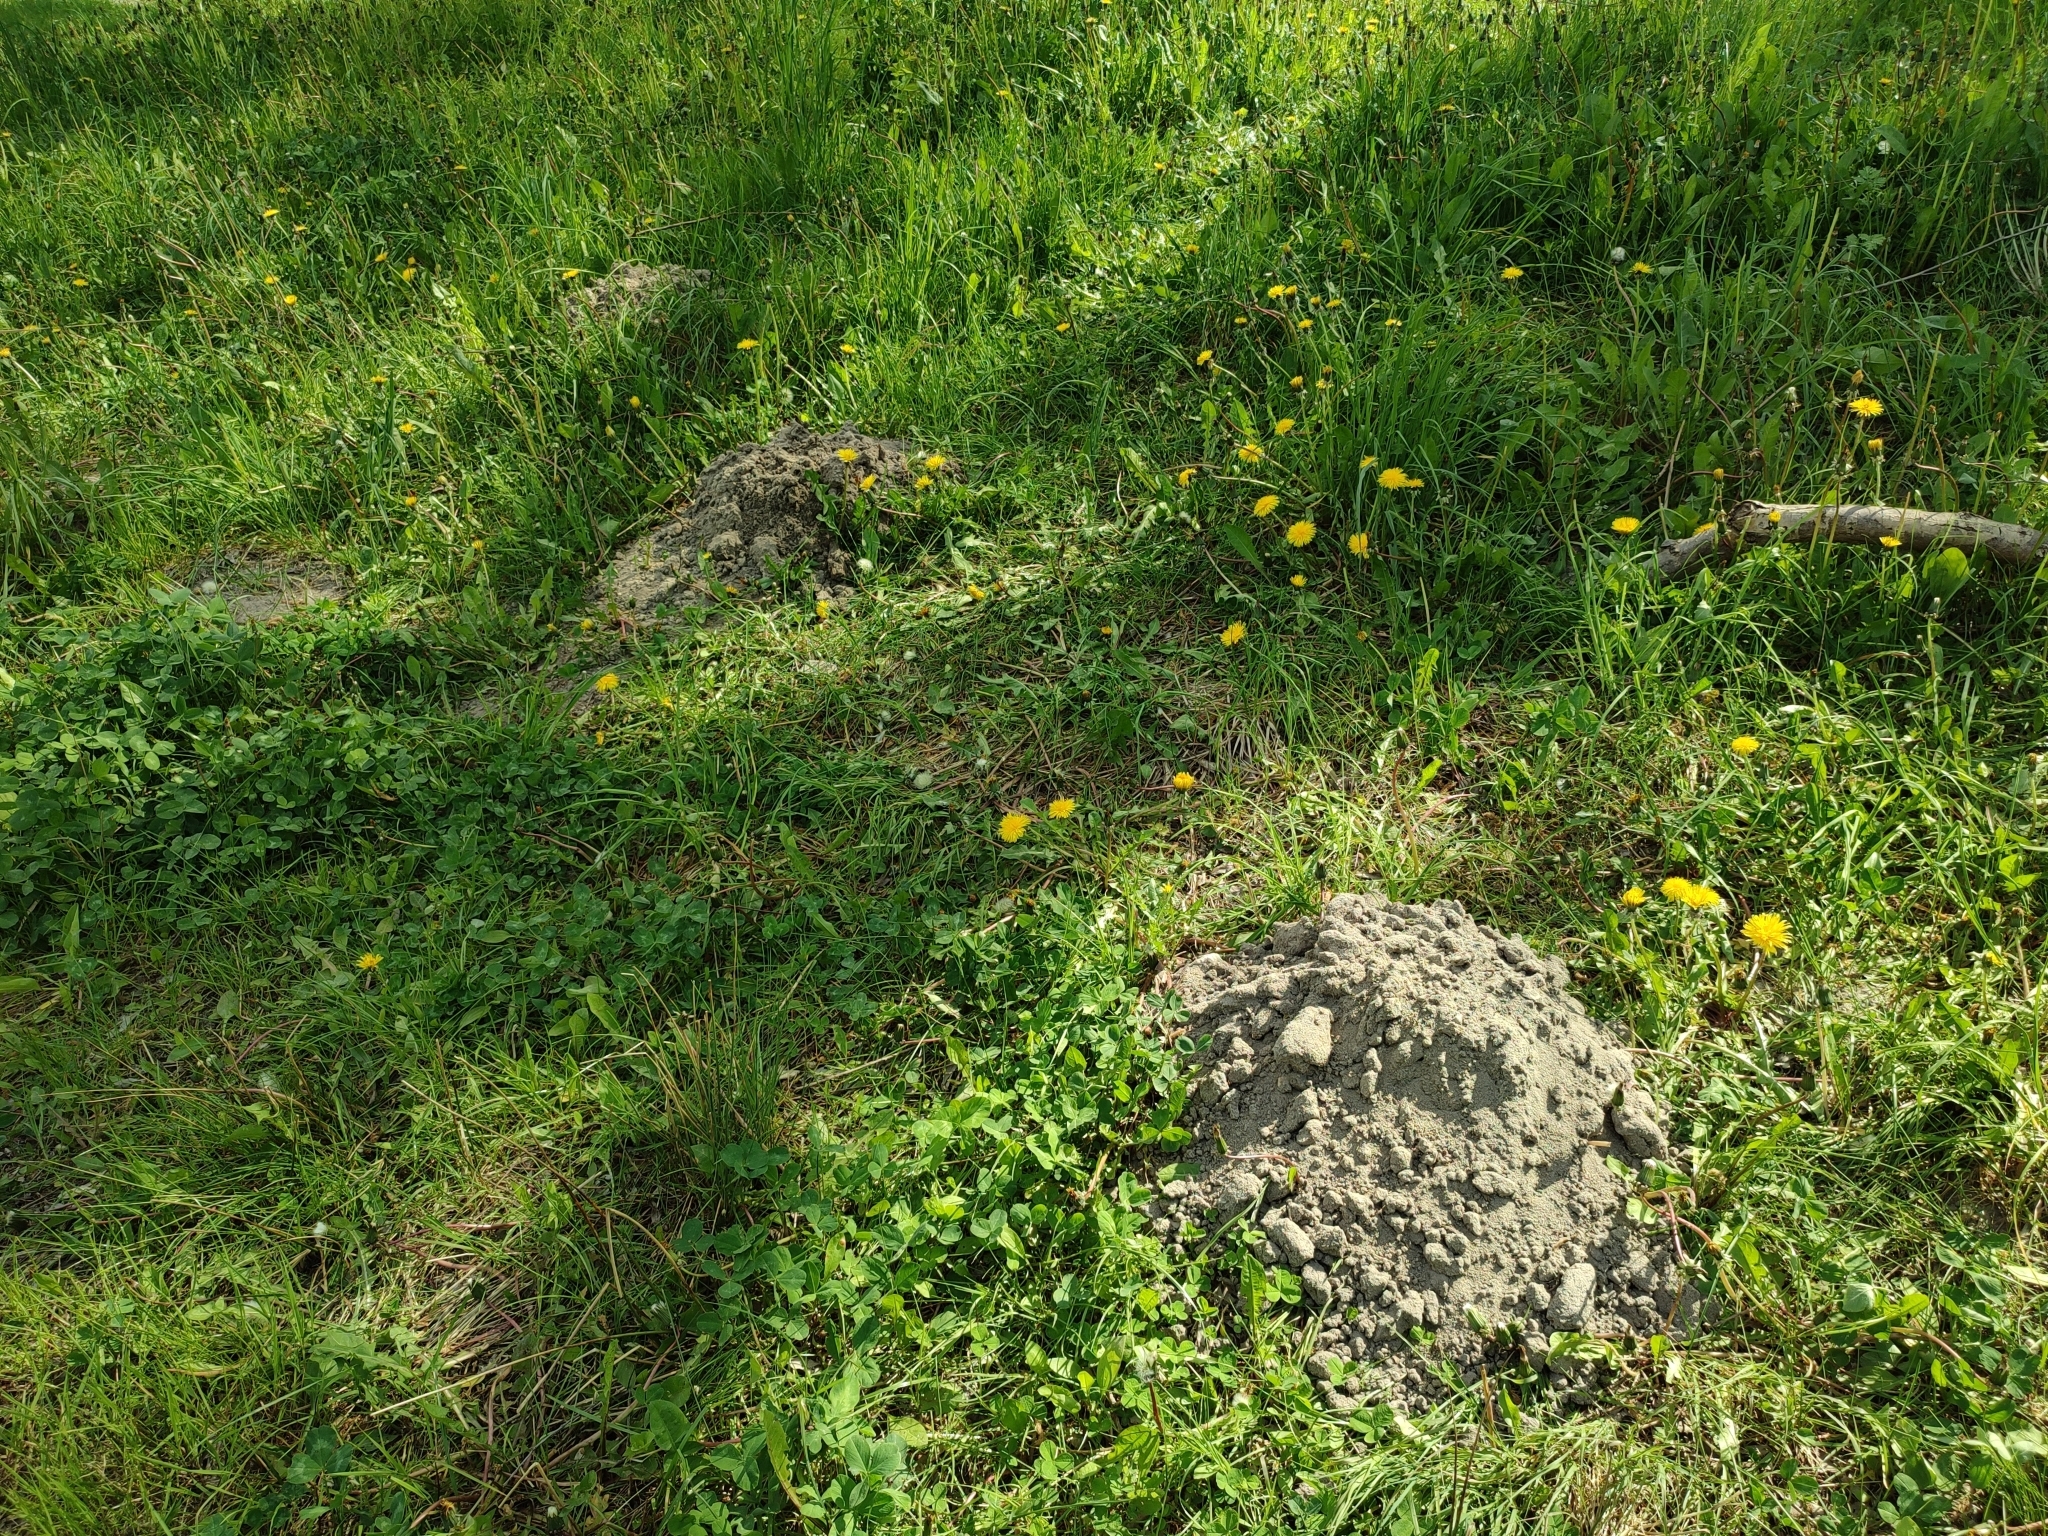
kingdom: Animalia
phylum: Chordata
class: Mammalia
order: Soricomorpha
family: Talpidae
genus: Talpa
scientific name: Talpa europaea
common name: European mole
